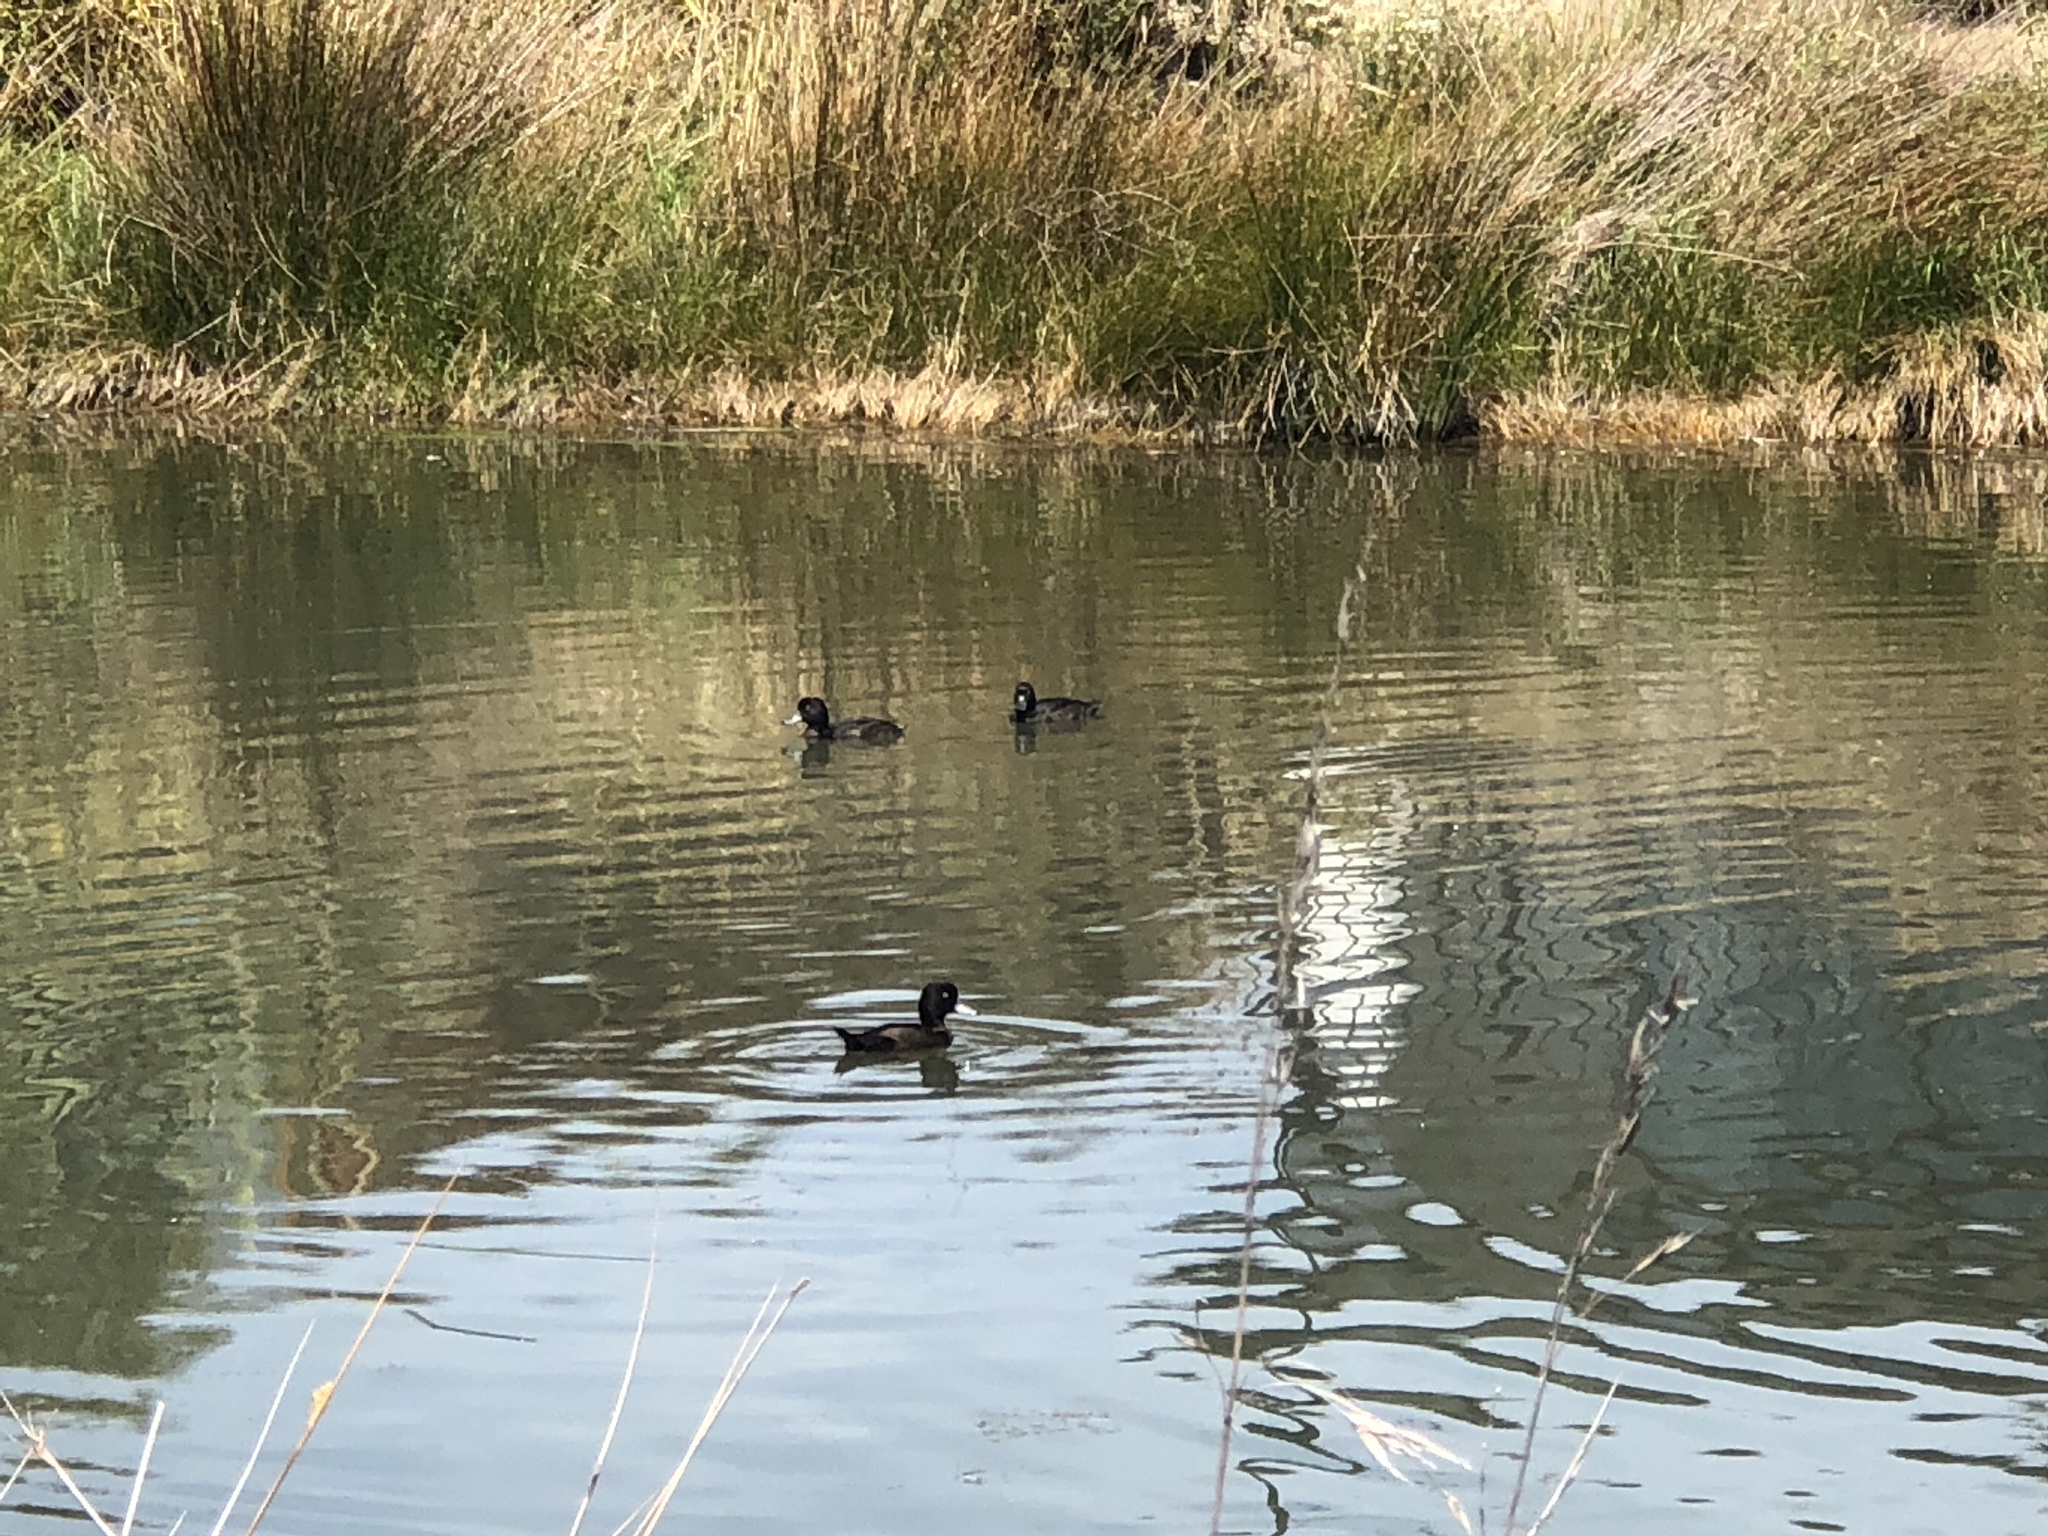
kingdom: Animalia
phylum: Chordata
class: Aves
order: Anseriformes
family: Anatidae
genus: Aythya
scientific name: Aythya novaeseelandiae
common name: New zealand scaup
